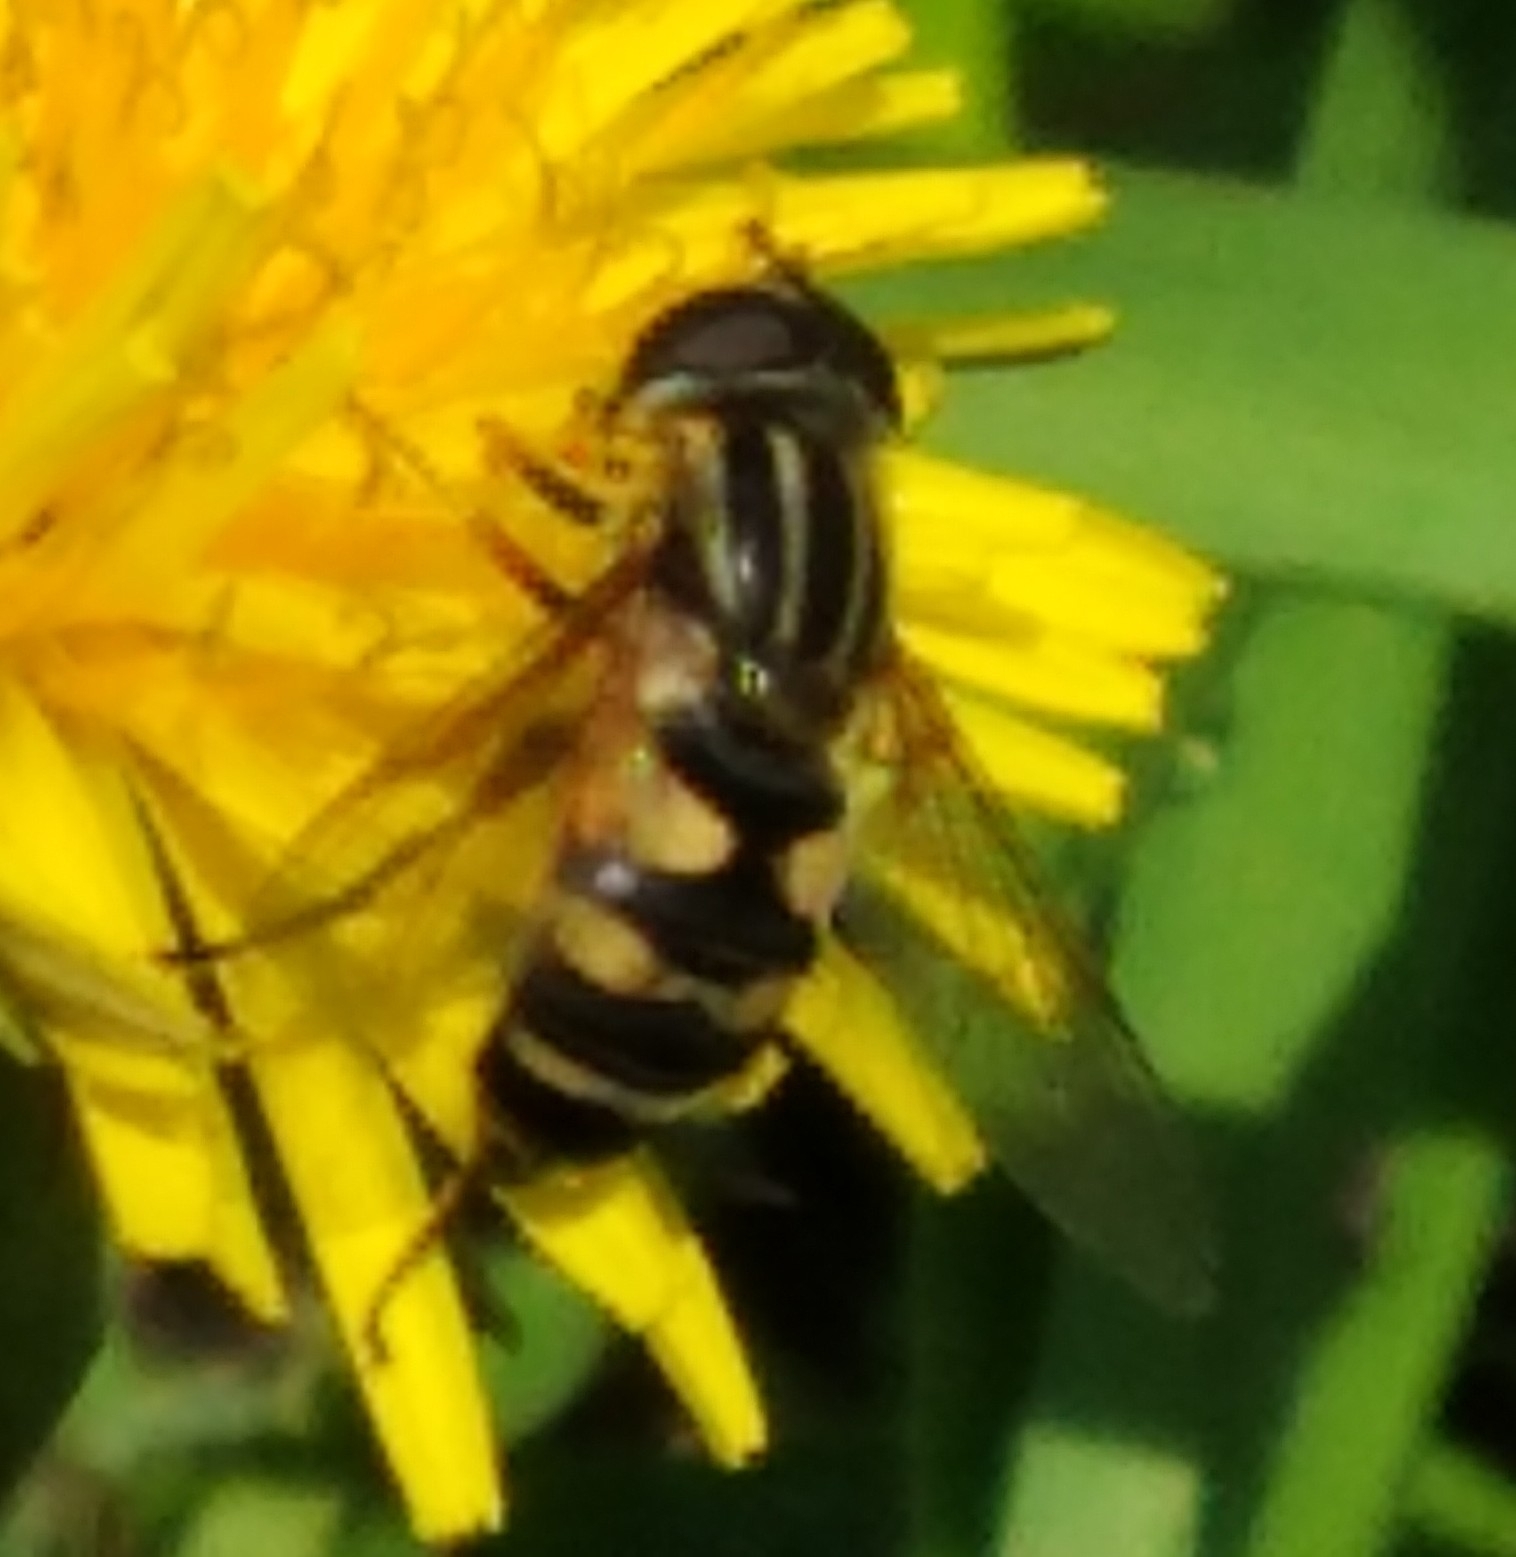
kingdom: Animalia
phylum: Arthropoda
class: Insecta
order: Diptera
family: Syrphidae
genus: Helophilus
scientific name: Helophilus fasciatus
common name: Narrow-headed marsh fly
